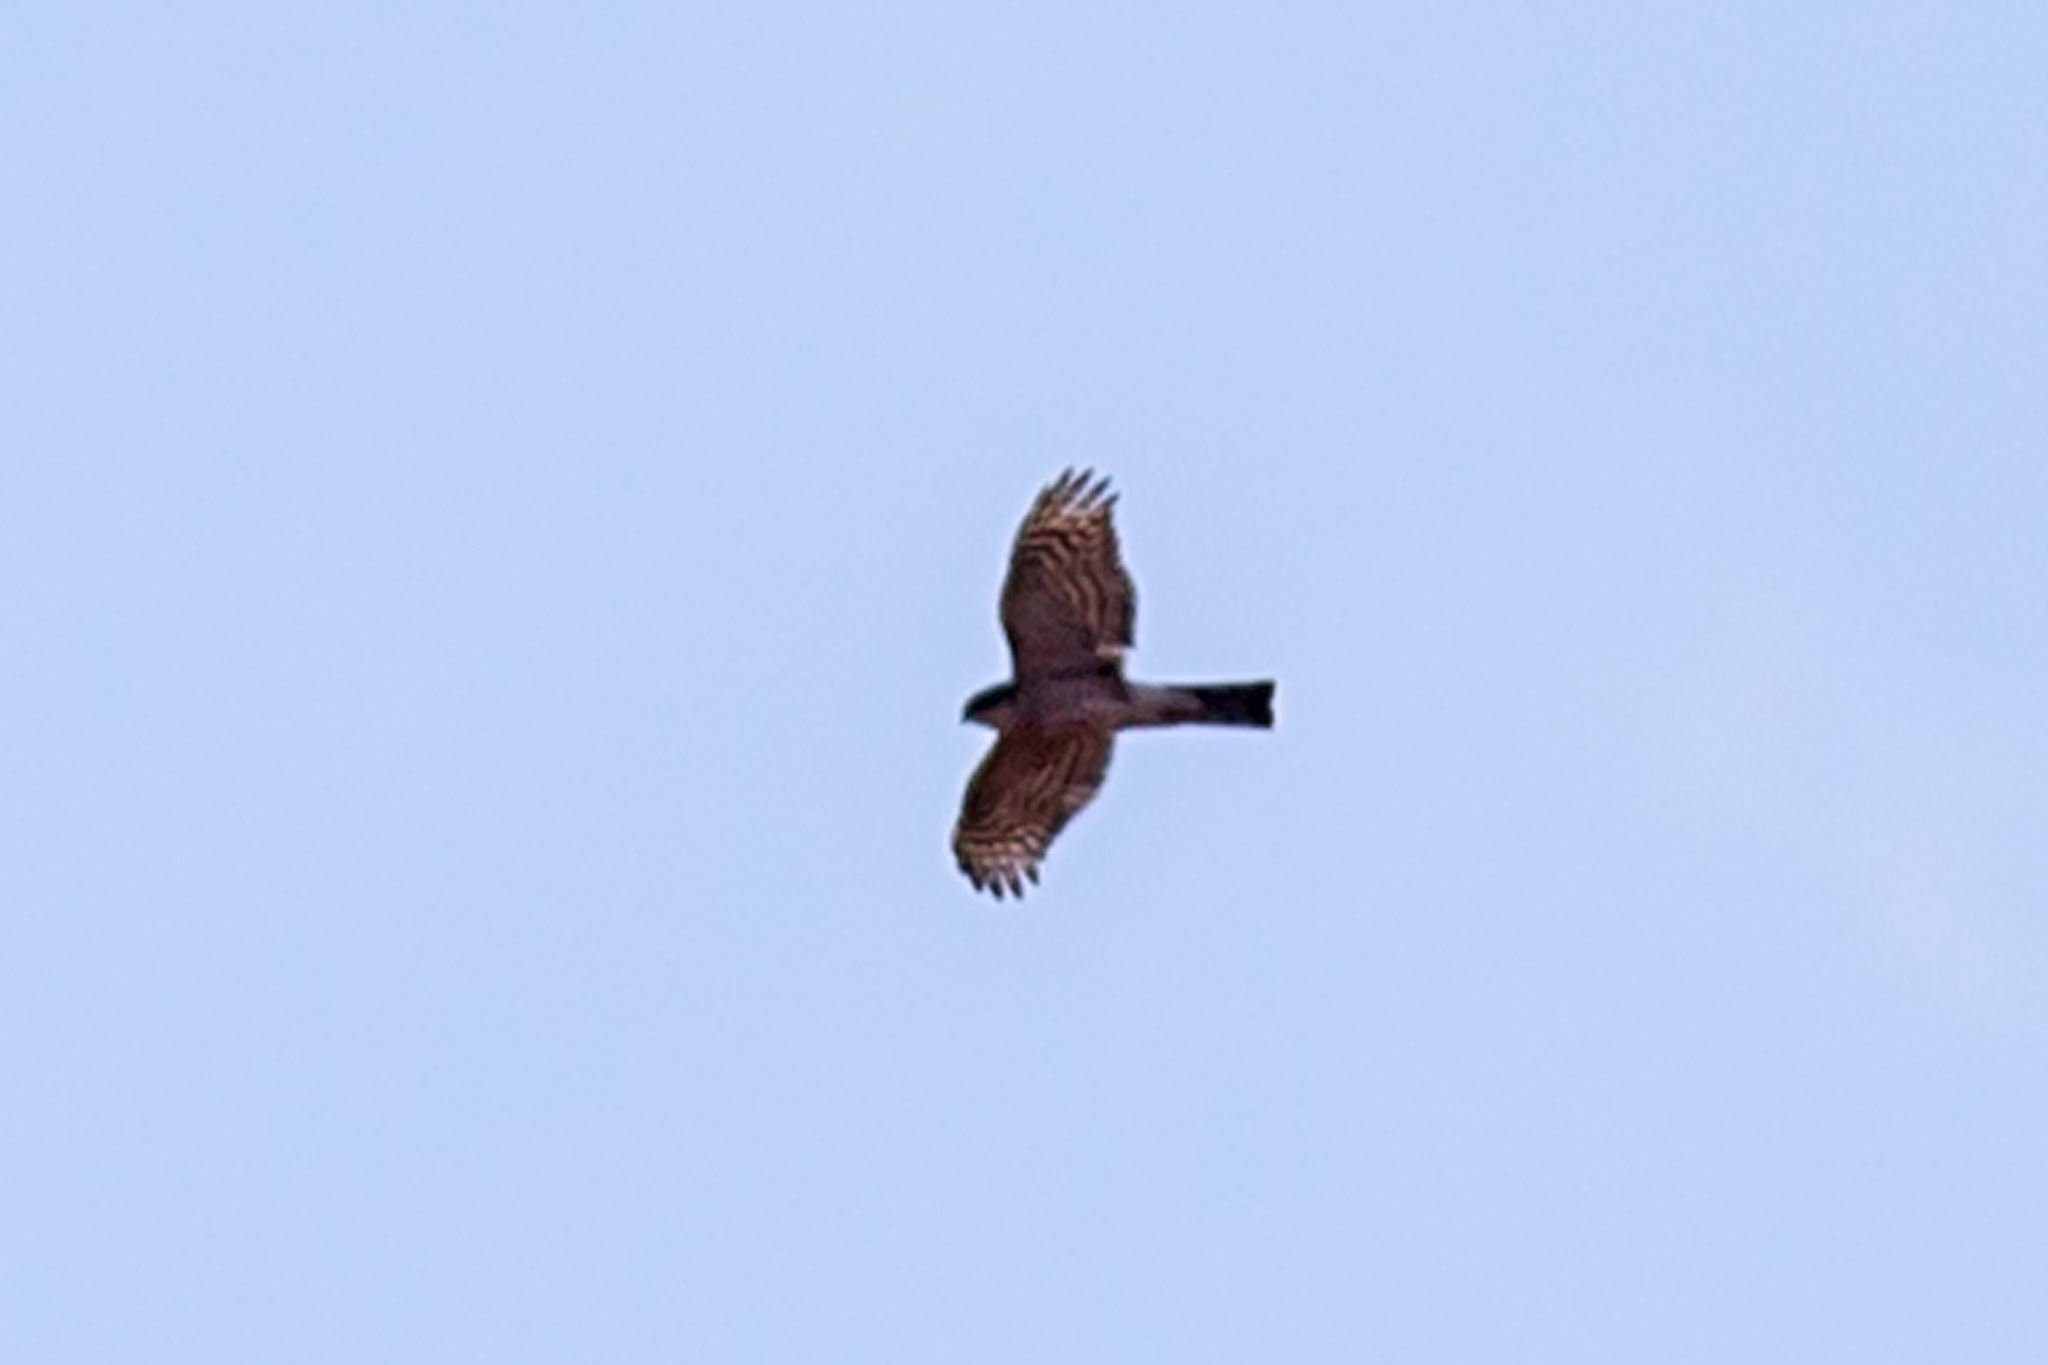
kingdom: Animalia
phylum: Chordata
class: Aves
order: Accipitriformes
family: Accipitridae
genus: Accipiter
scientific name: Accipiter striatus
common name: Sharp-shinned hawk
